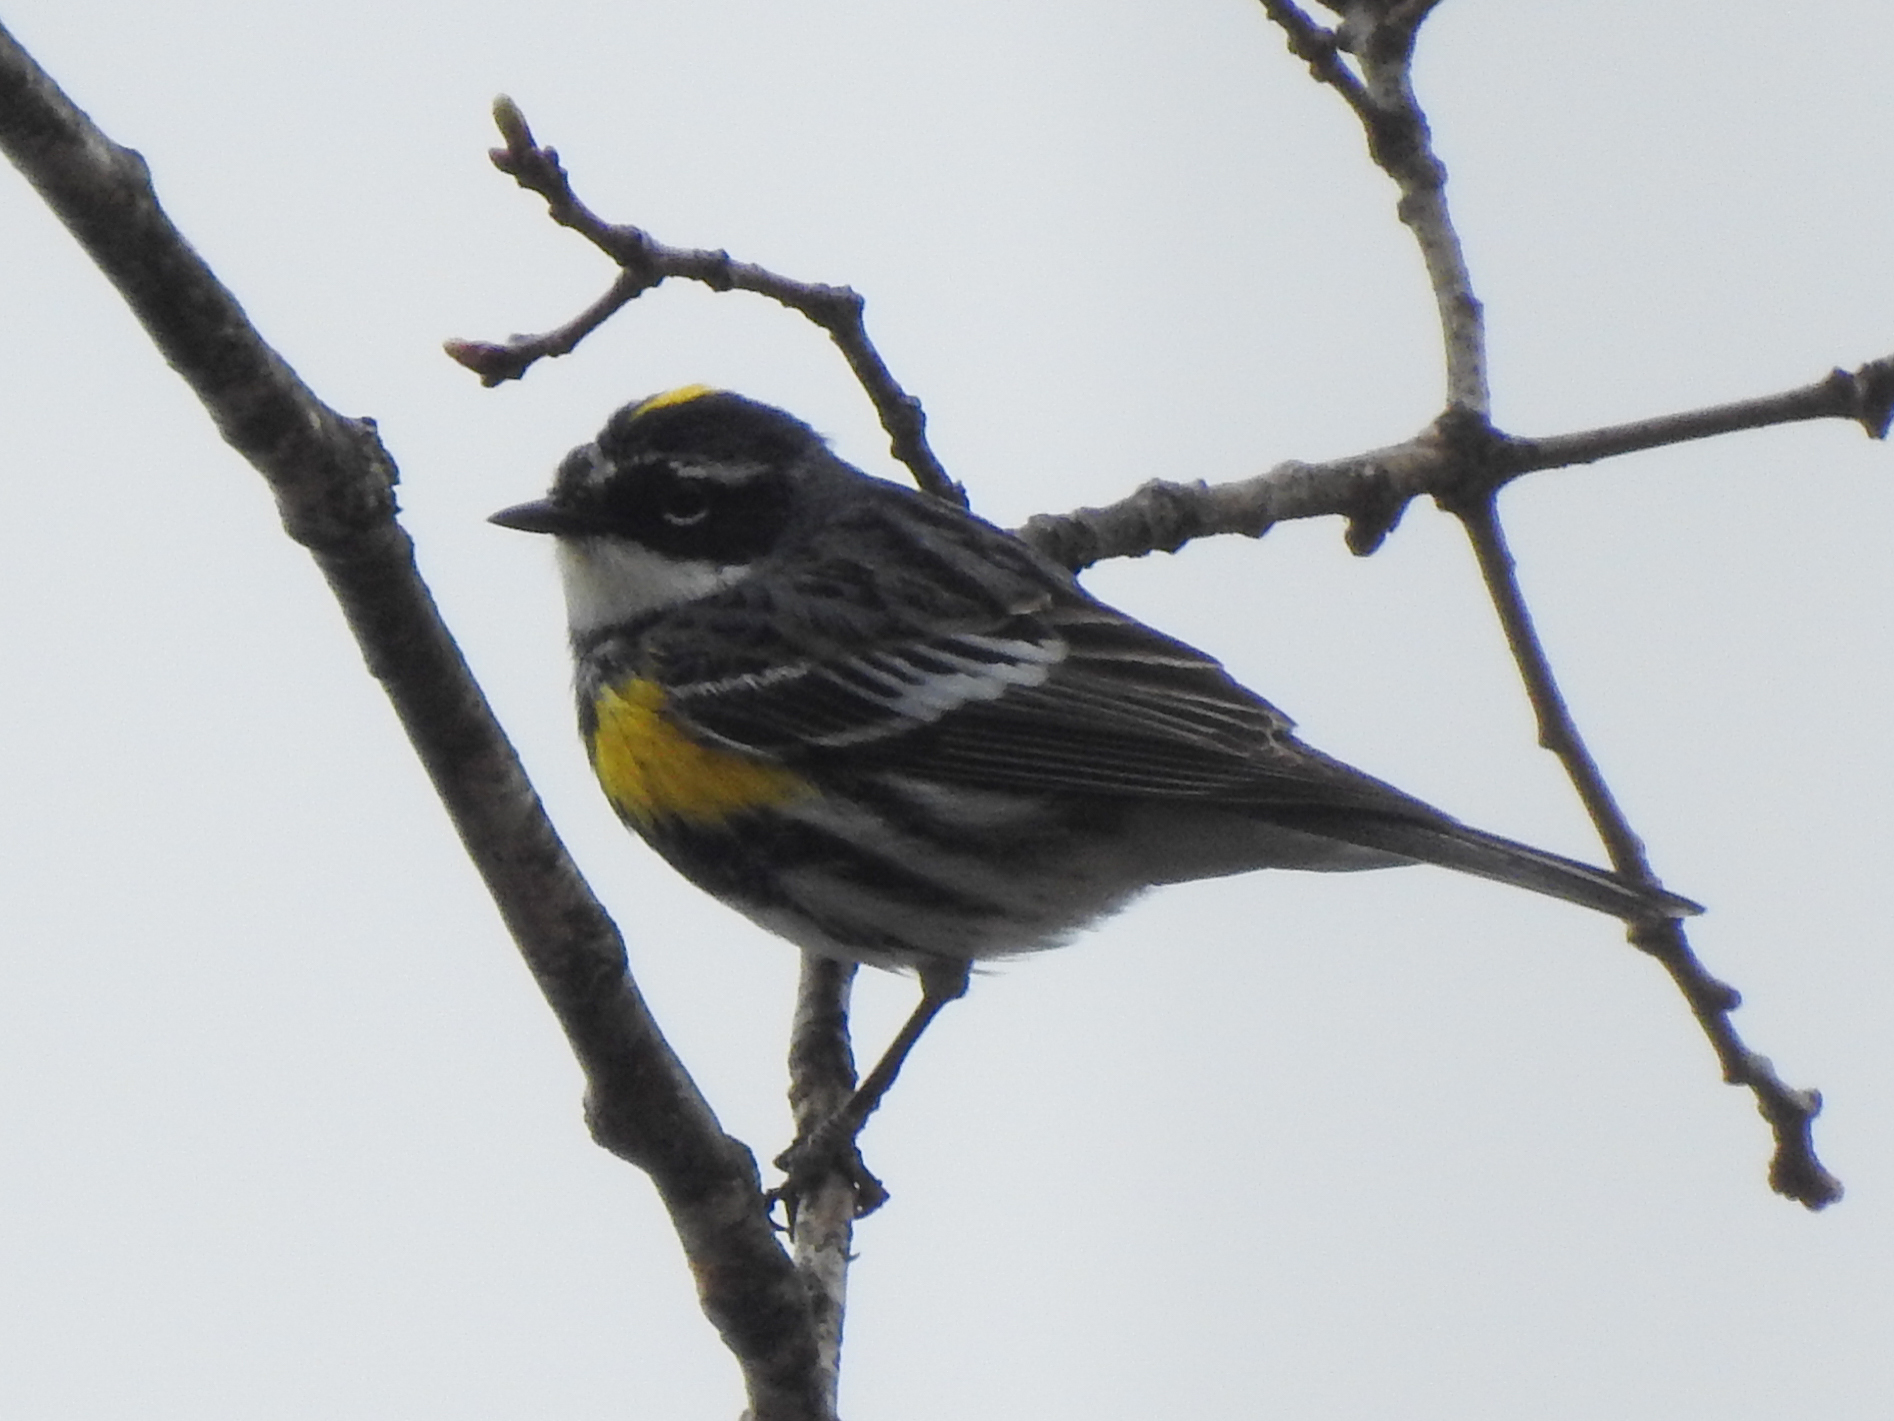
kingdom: Animalia
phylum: Chordata
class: Aves
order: Passeriformes
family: Parulidae
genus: Setophaga
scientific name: Setophaga coronata
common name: Myrtle warbler
